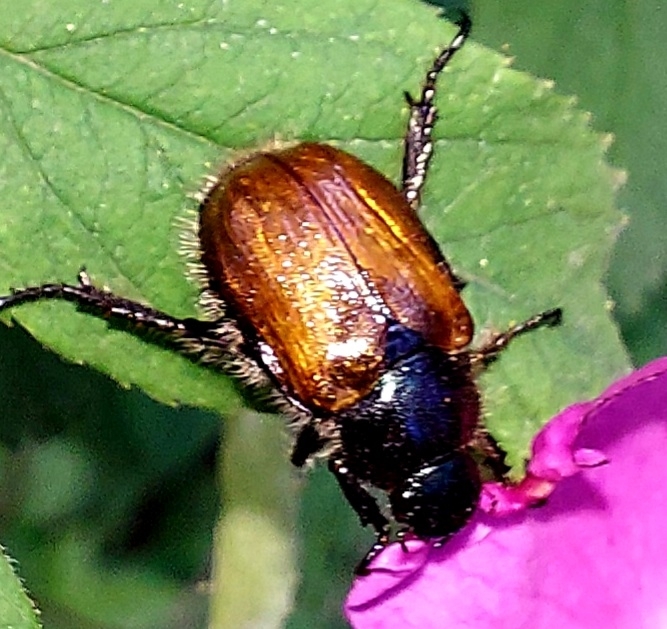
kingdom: Animalia
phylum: Arthropoda
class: Insecta
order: Coleoptera
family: Scarabaeidae
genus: Phyllopertha
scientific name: Phyllopertha horticola
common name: Garden chafer
